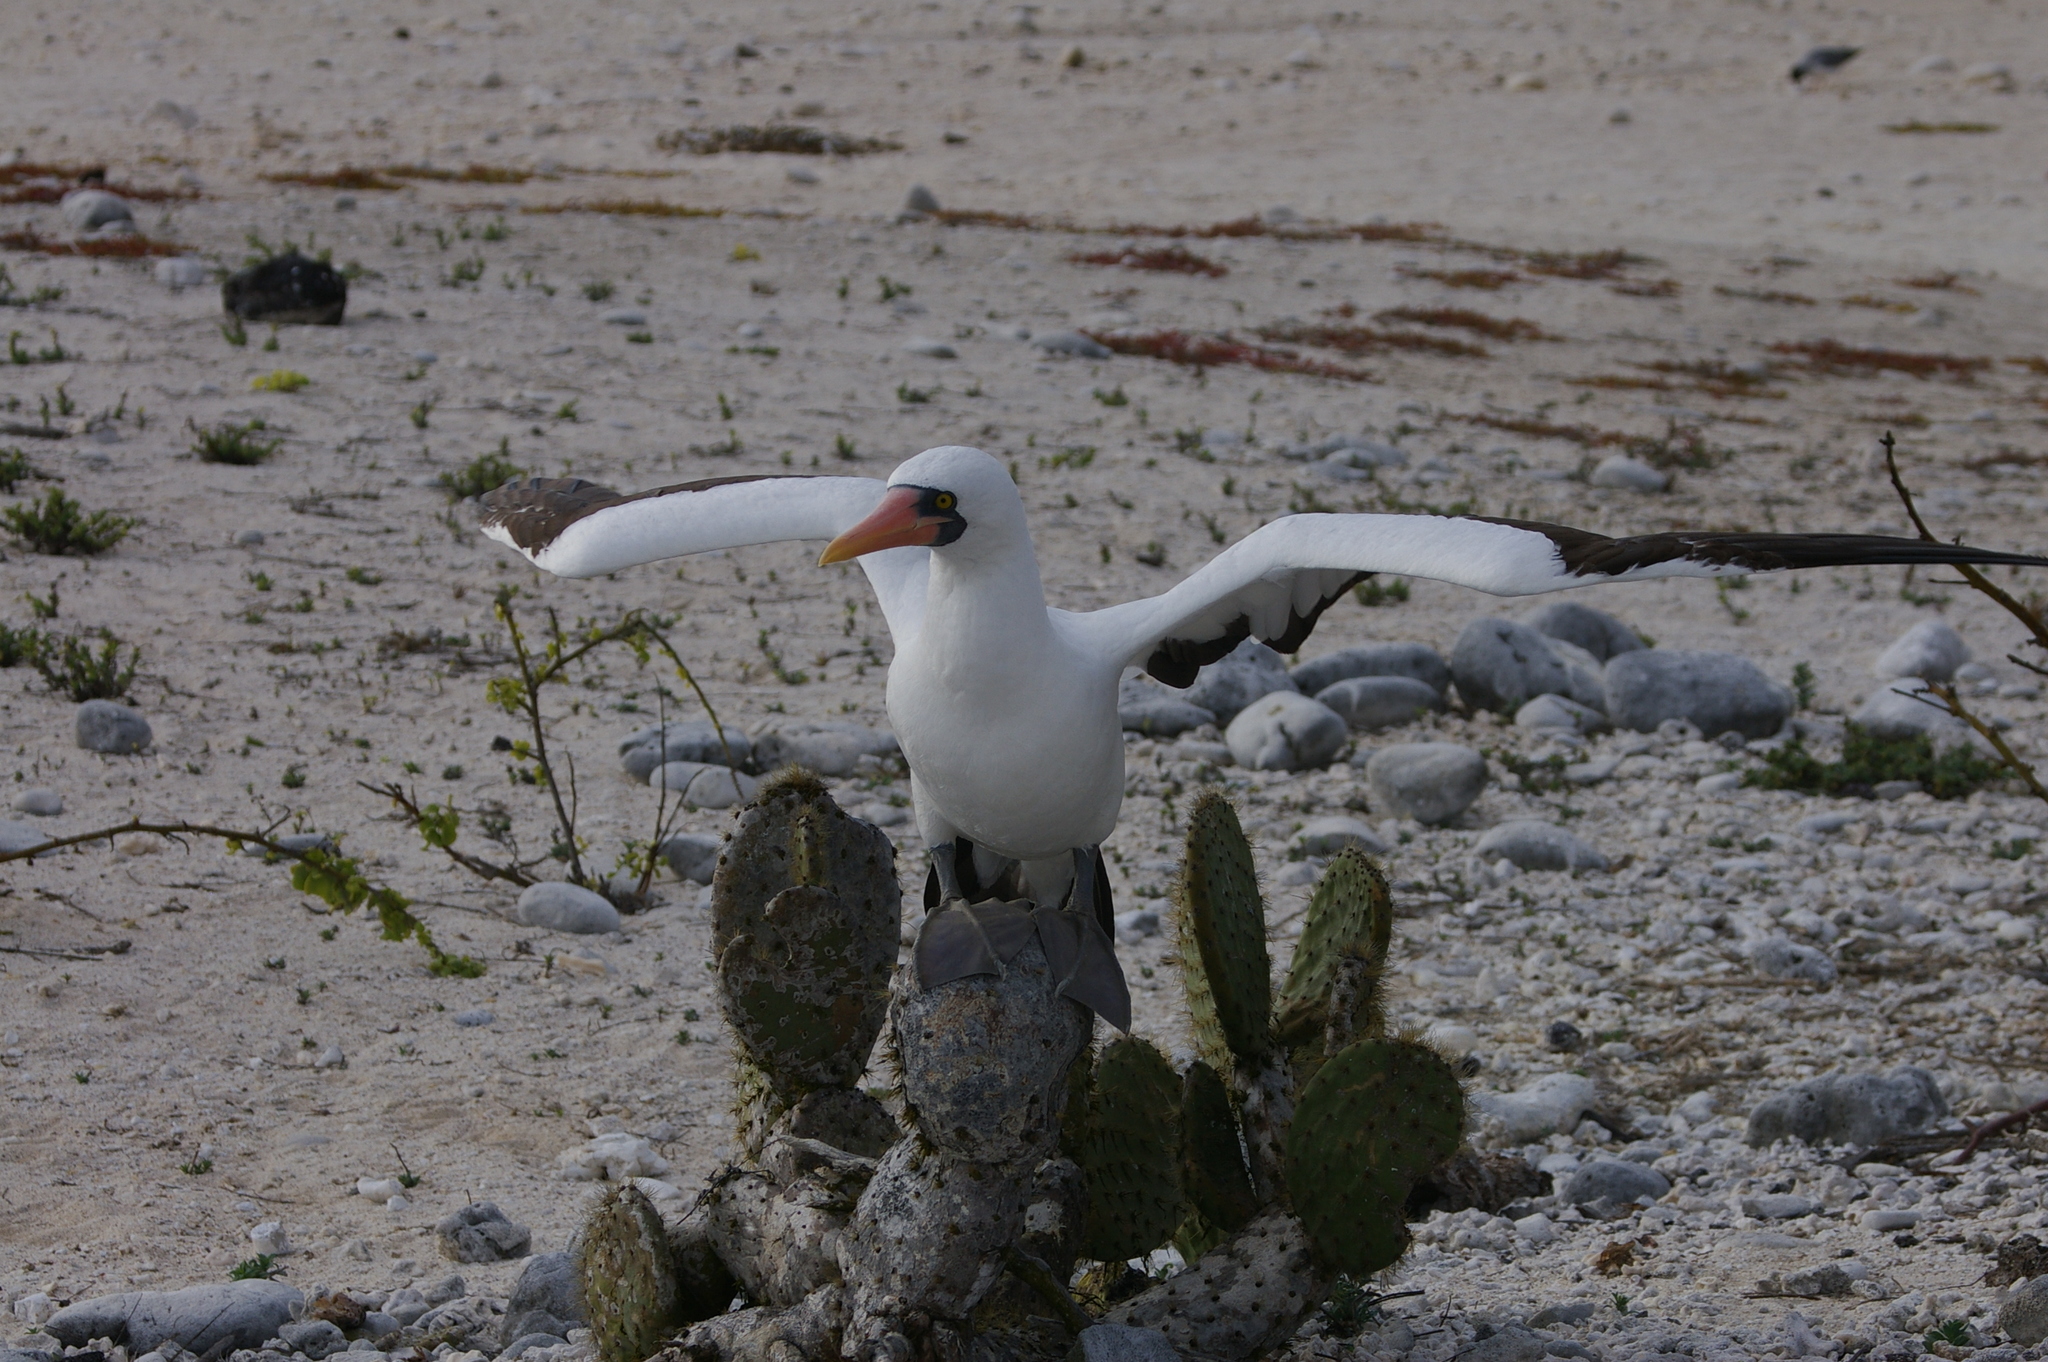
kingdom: Animalia
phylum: Chordata
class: Aves
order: Suliformes
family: Sulidae
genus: Sula
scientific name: Sula granti
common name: Nazca booby
